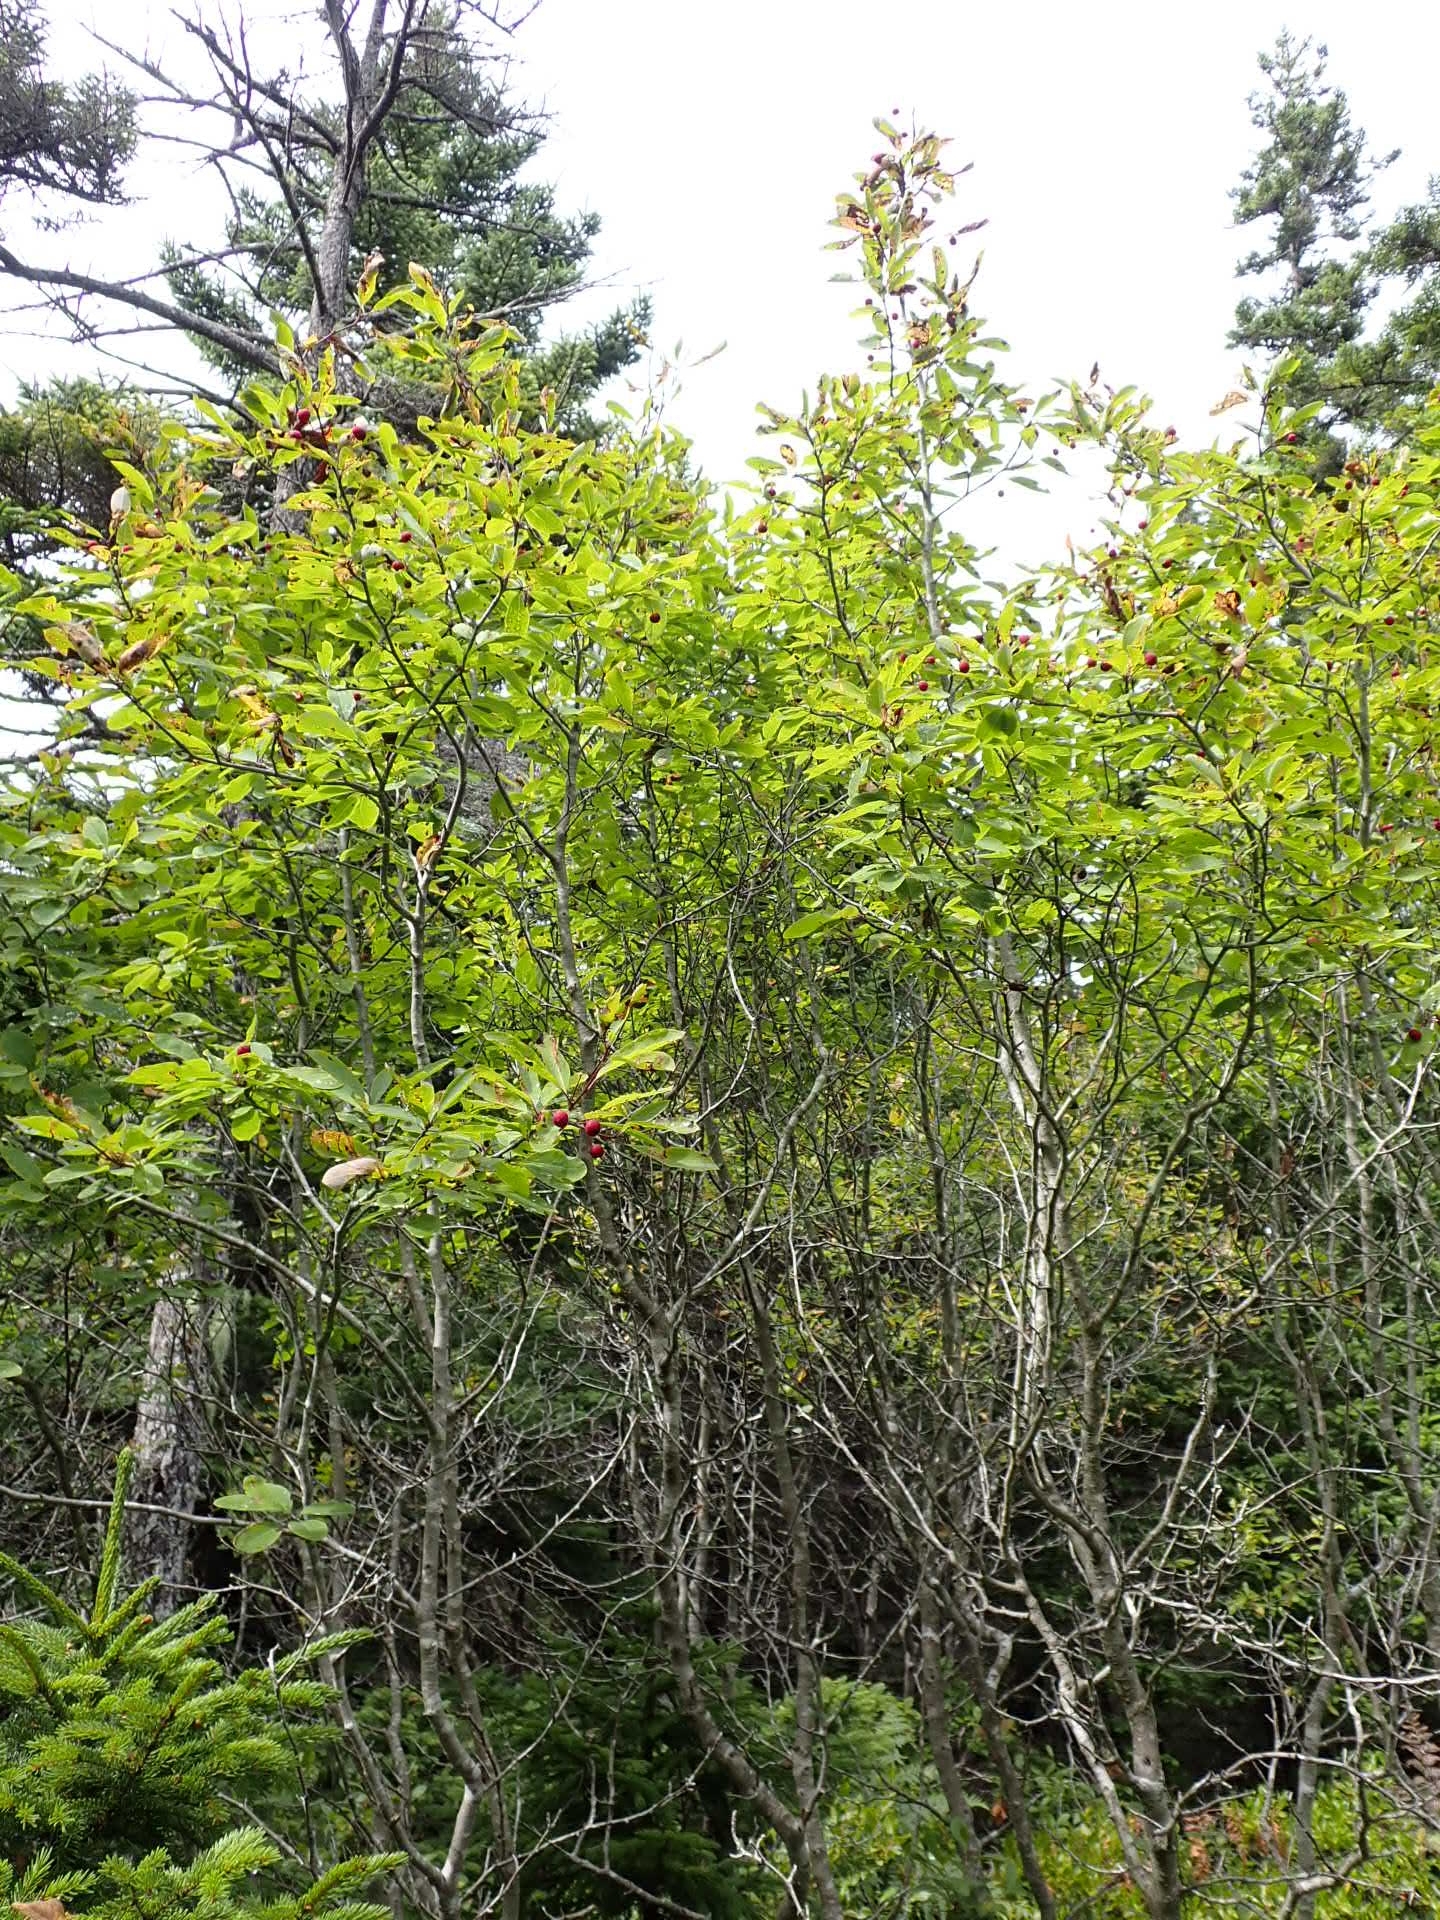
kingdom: Plantae
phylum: Tracheophyta
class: Magnoliopsida
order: Aquifoliales
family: Aquifoliaceae
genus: Ilex
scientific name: Ilex mucronata
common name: Catberry
